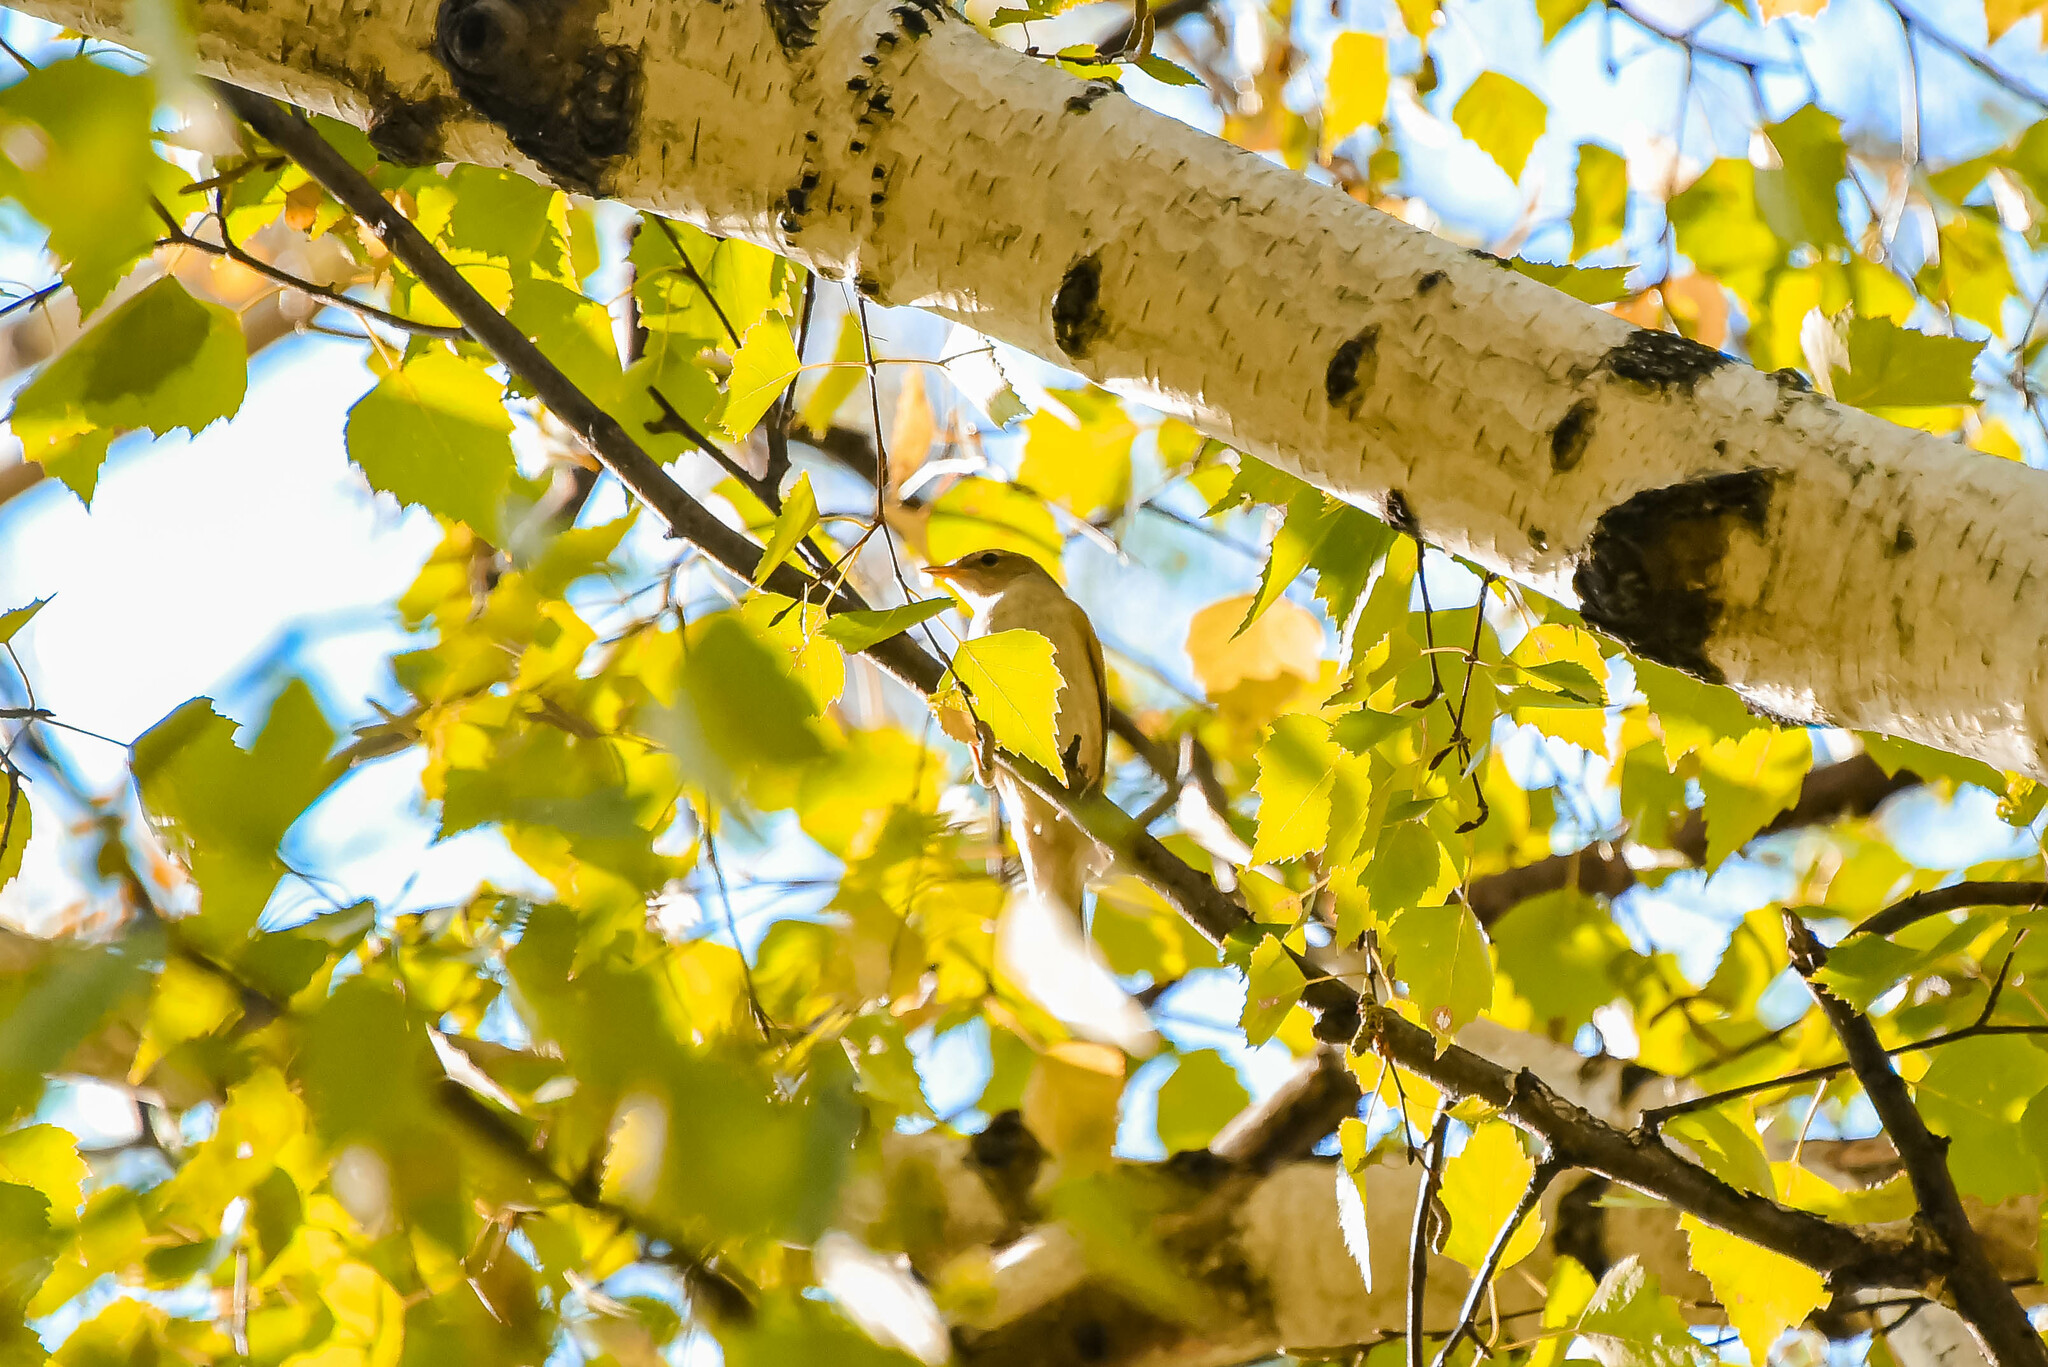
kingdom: Animalia
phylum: Chordata
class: Aves
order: Passeriformes
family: Sylviidae
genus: Sylvia
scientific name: Sylvia borin
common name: Garden warbler
